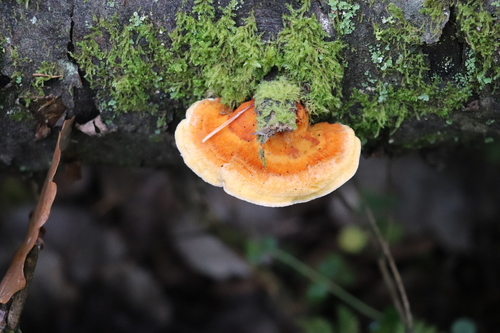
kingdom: Fungi
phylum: Basidiomycota
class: Agaricomycetes
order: Polyporales
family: Pycnoporellaceae
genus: Pycnoporellus
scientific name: Pycnoporellus fulgens
